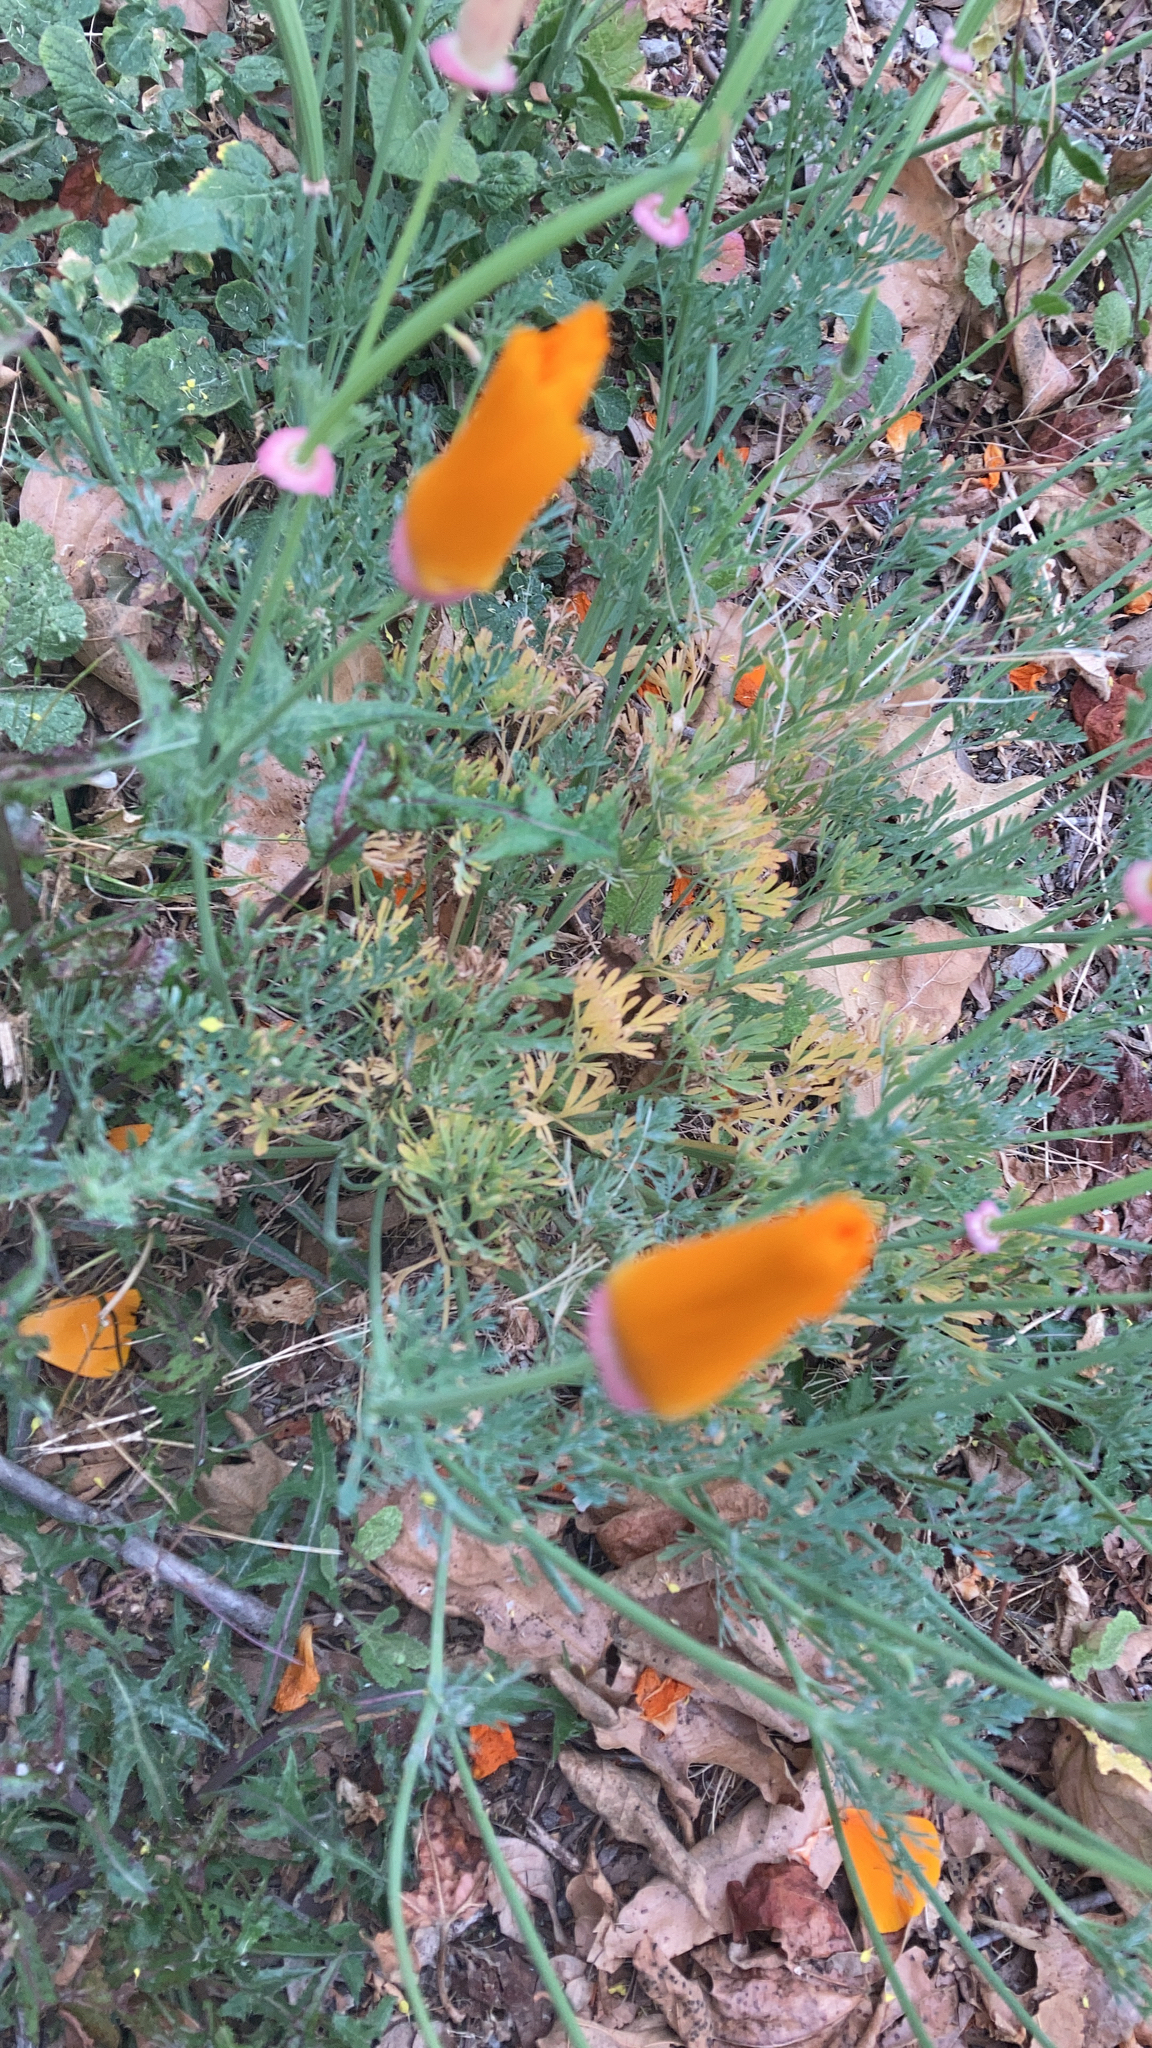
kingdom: Plantae
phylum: Tracheophyta
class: Magnoliopsida
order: Ranunculales
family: Papaveraceae
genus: Eschscholzia
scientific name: Eschscholzia californica
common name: California poppy
